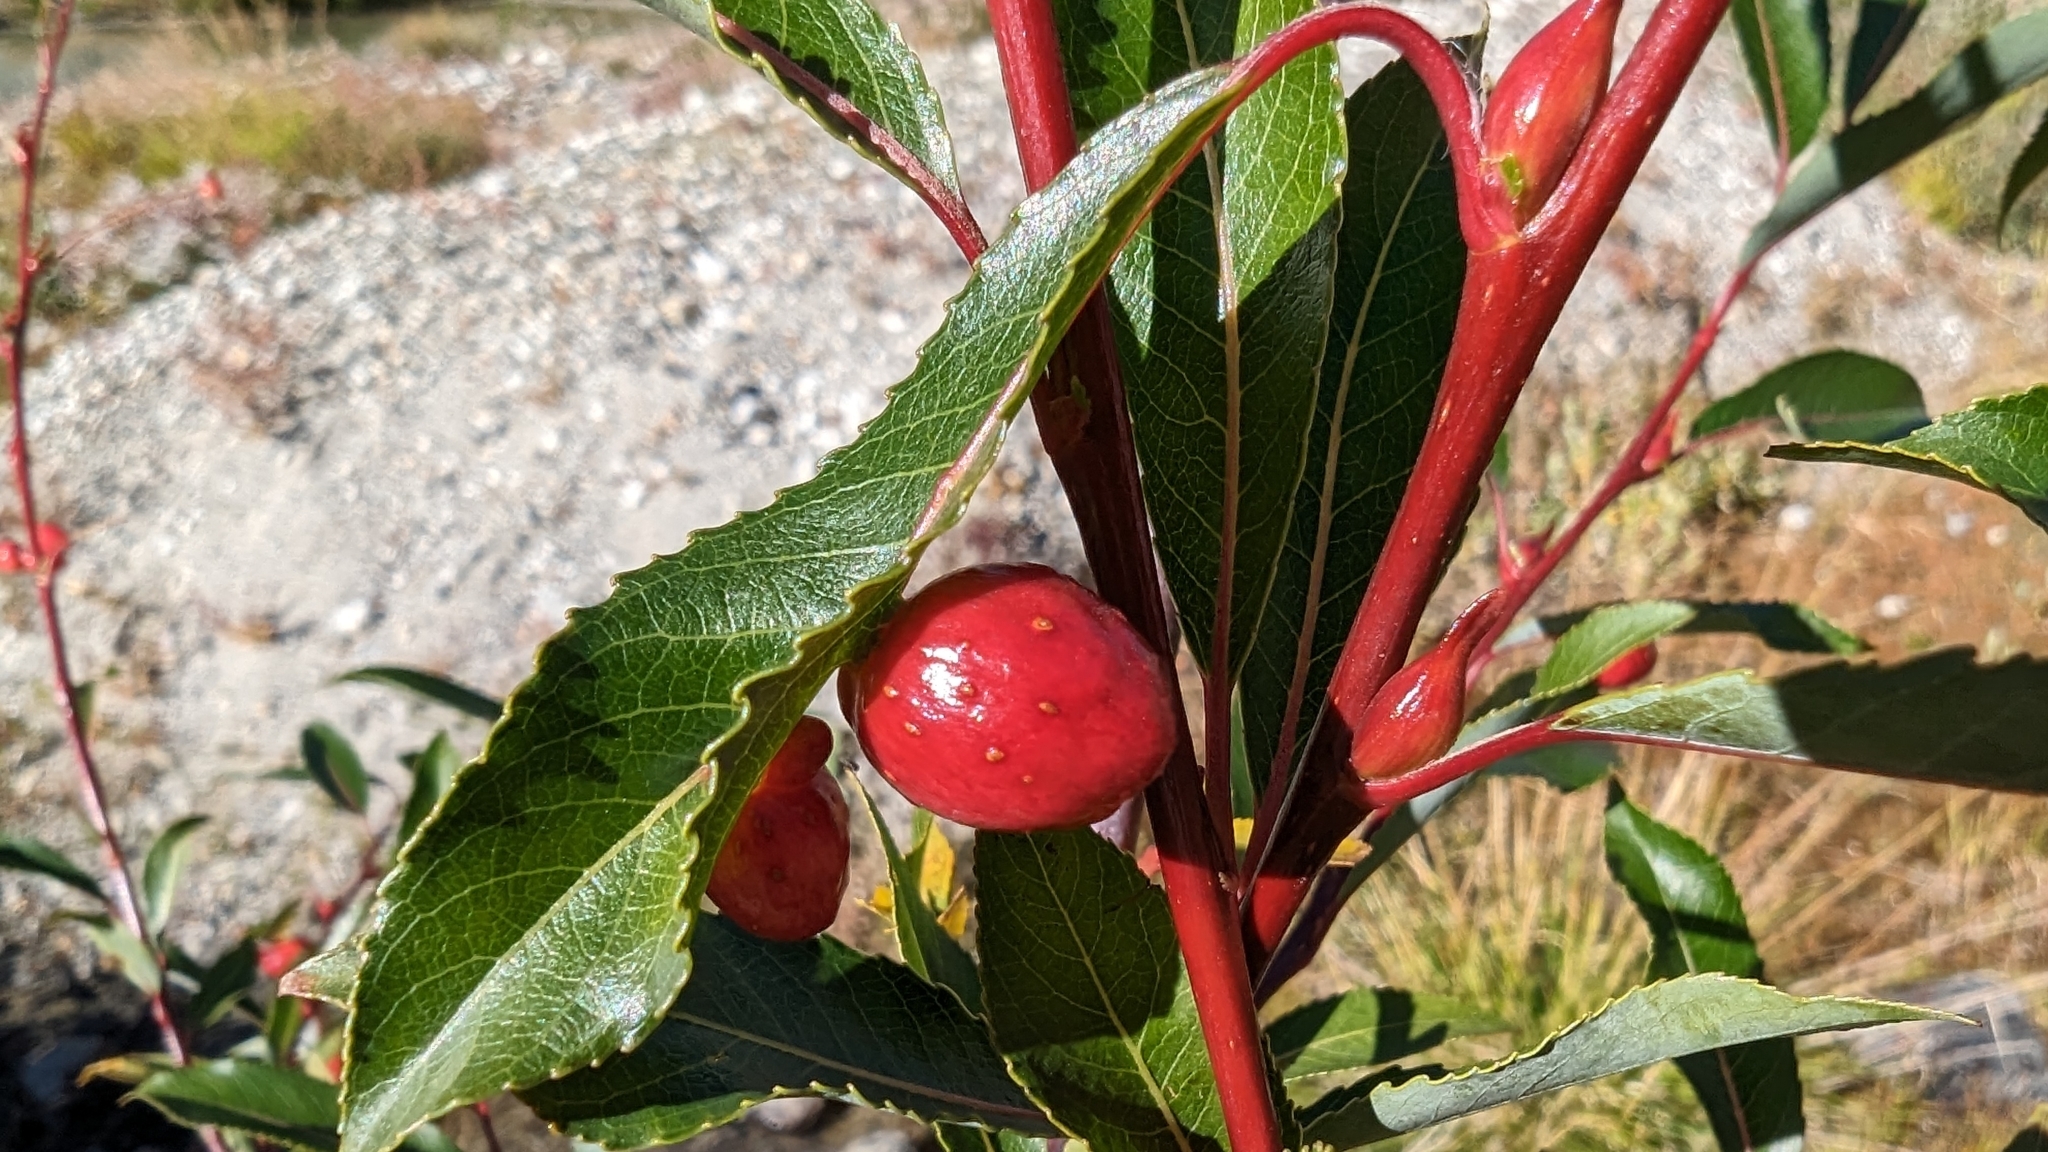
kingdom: Animalia
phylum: Arthropoda
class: Insecta
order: Hymenoptera
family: Tenthredinidae
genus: Euura
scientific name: Euura acutifoliae
